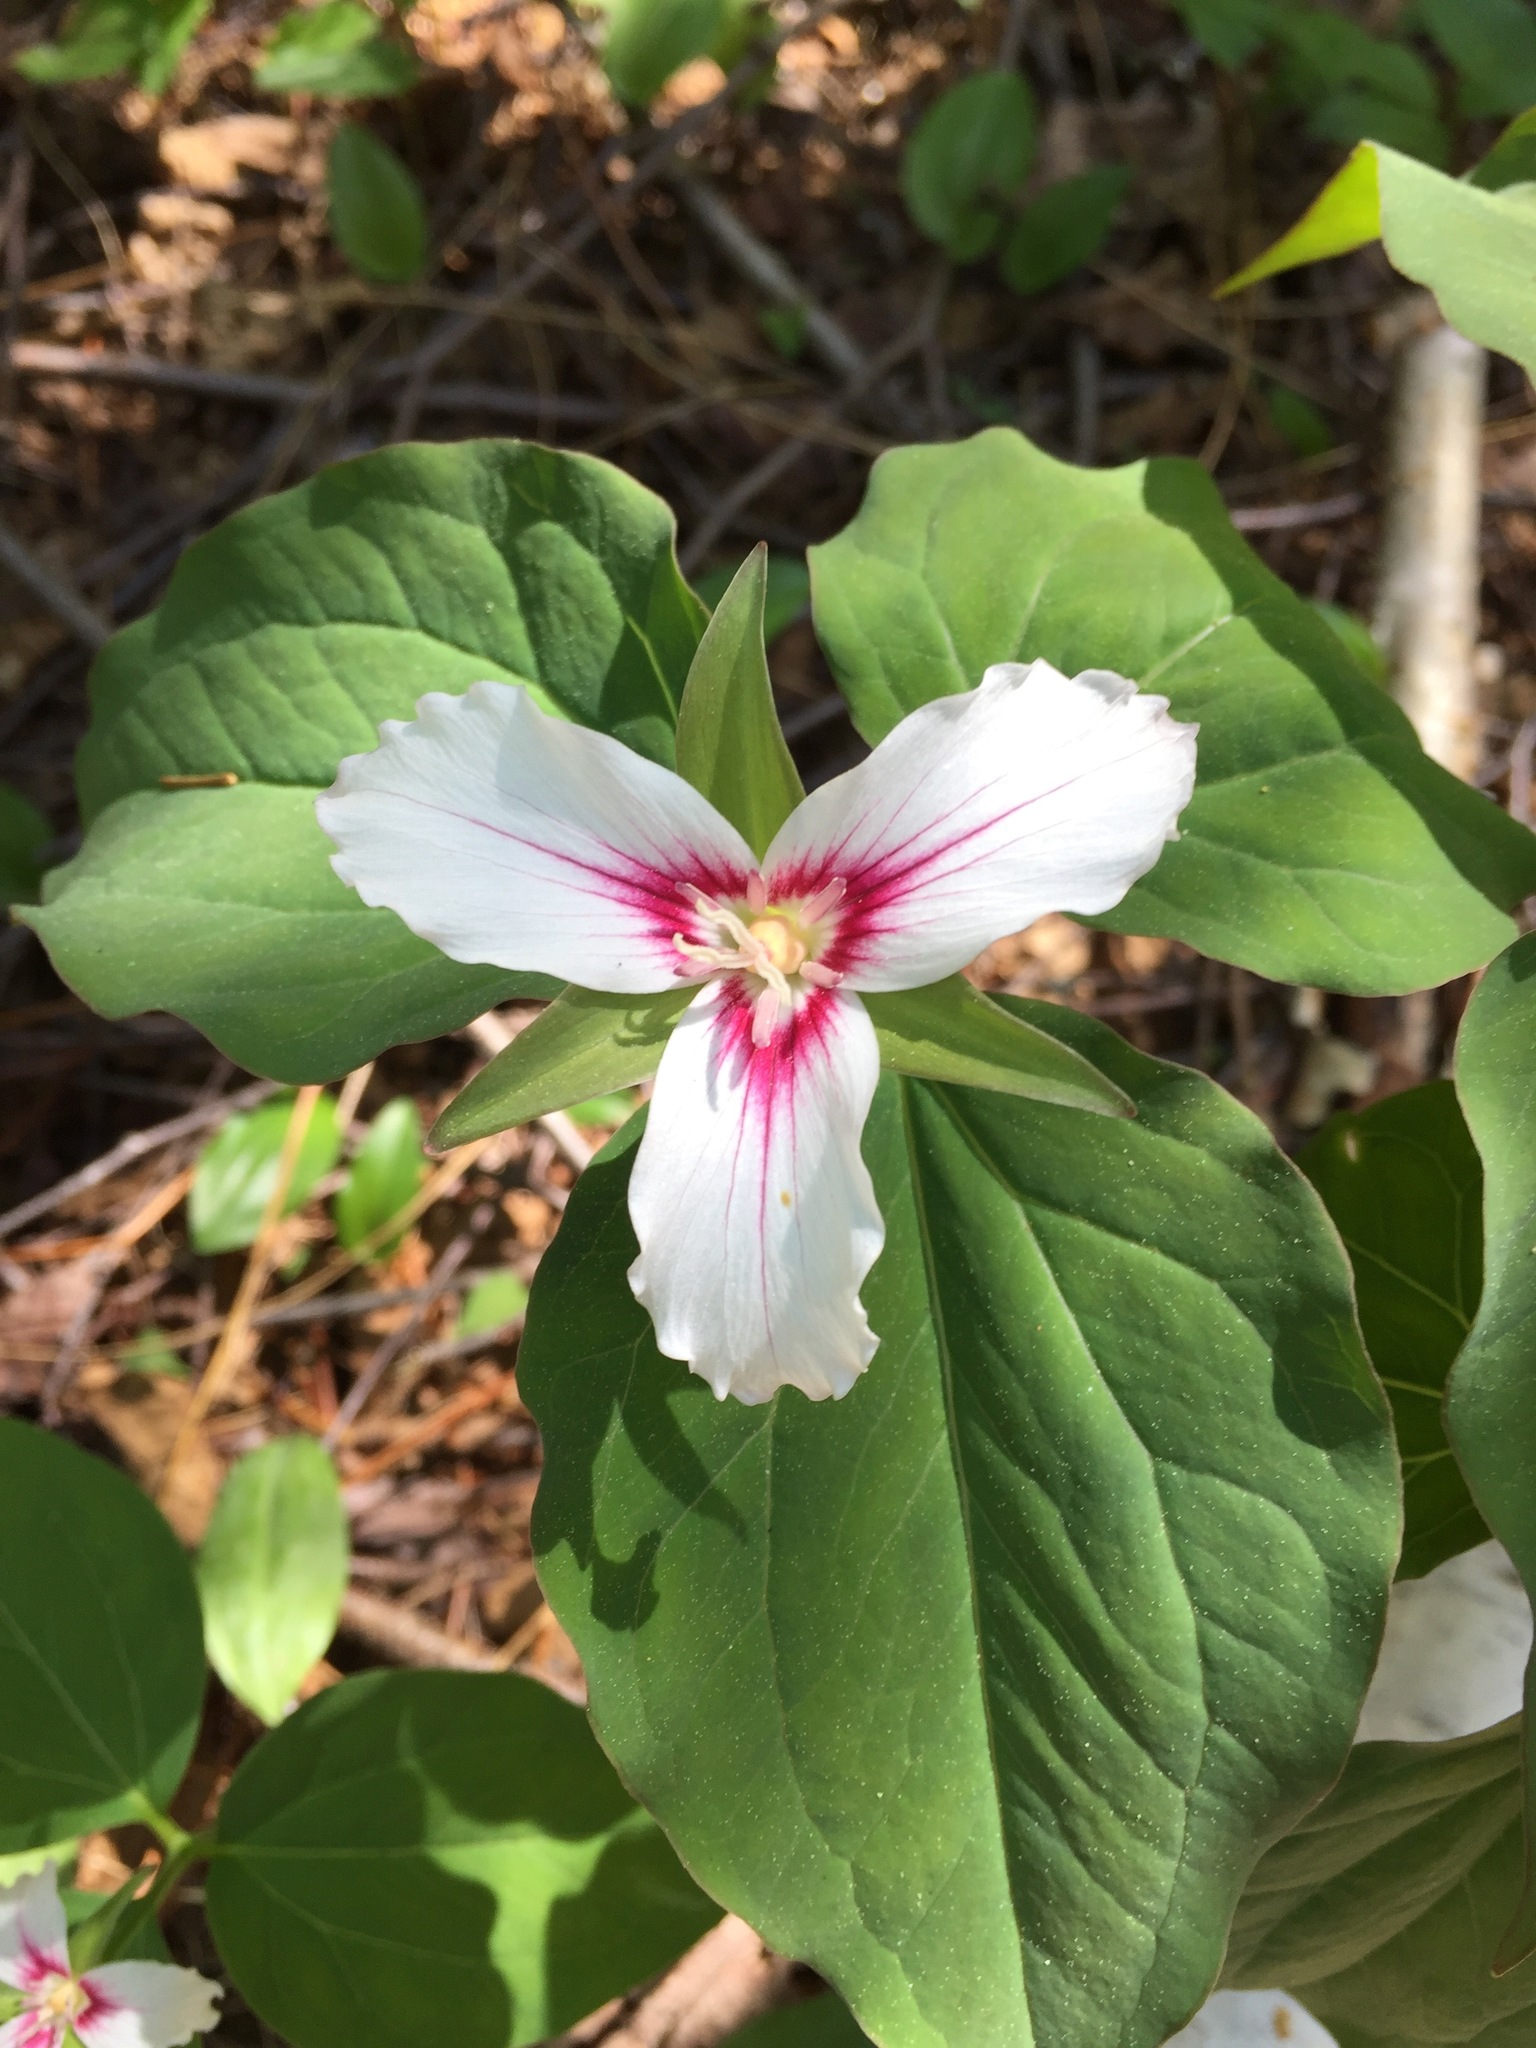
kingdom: Plantae
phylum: Tracheophyta
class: Liliopsida
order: Liliales
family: Melanthiaceae
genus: Trillium
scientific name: Trillium undulatum
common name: Paint trillium
